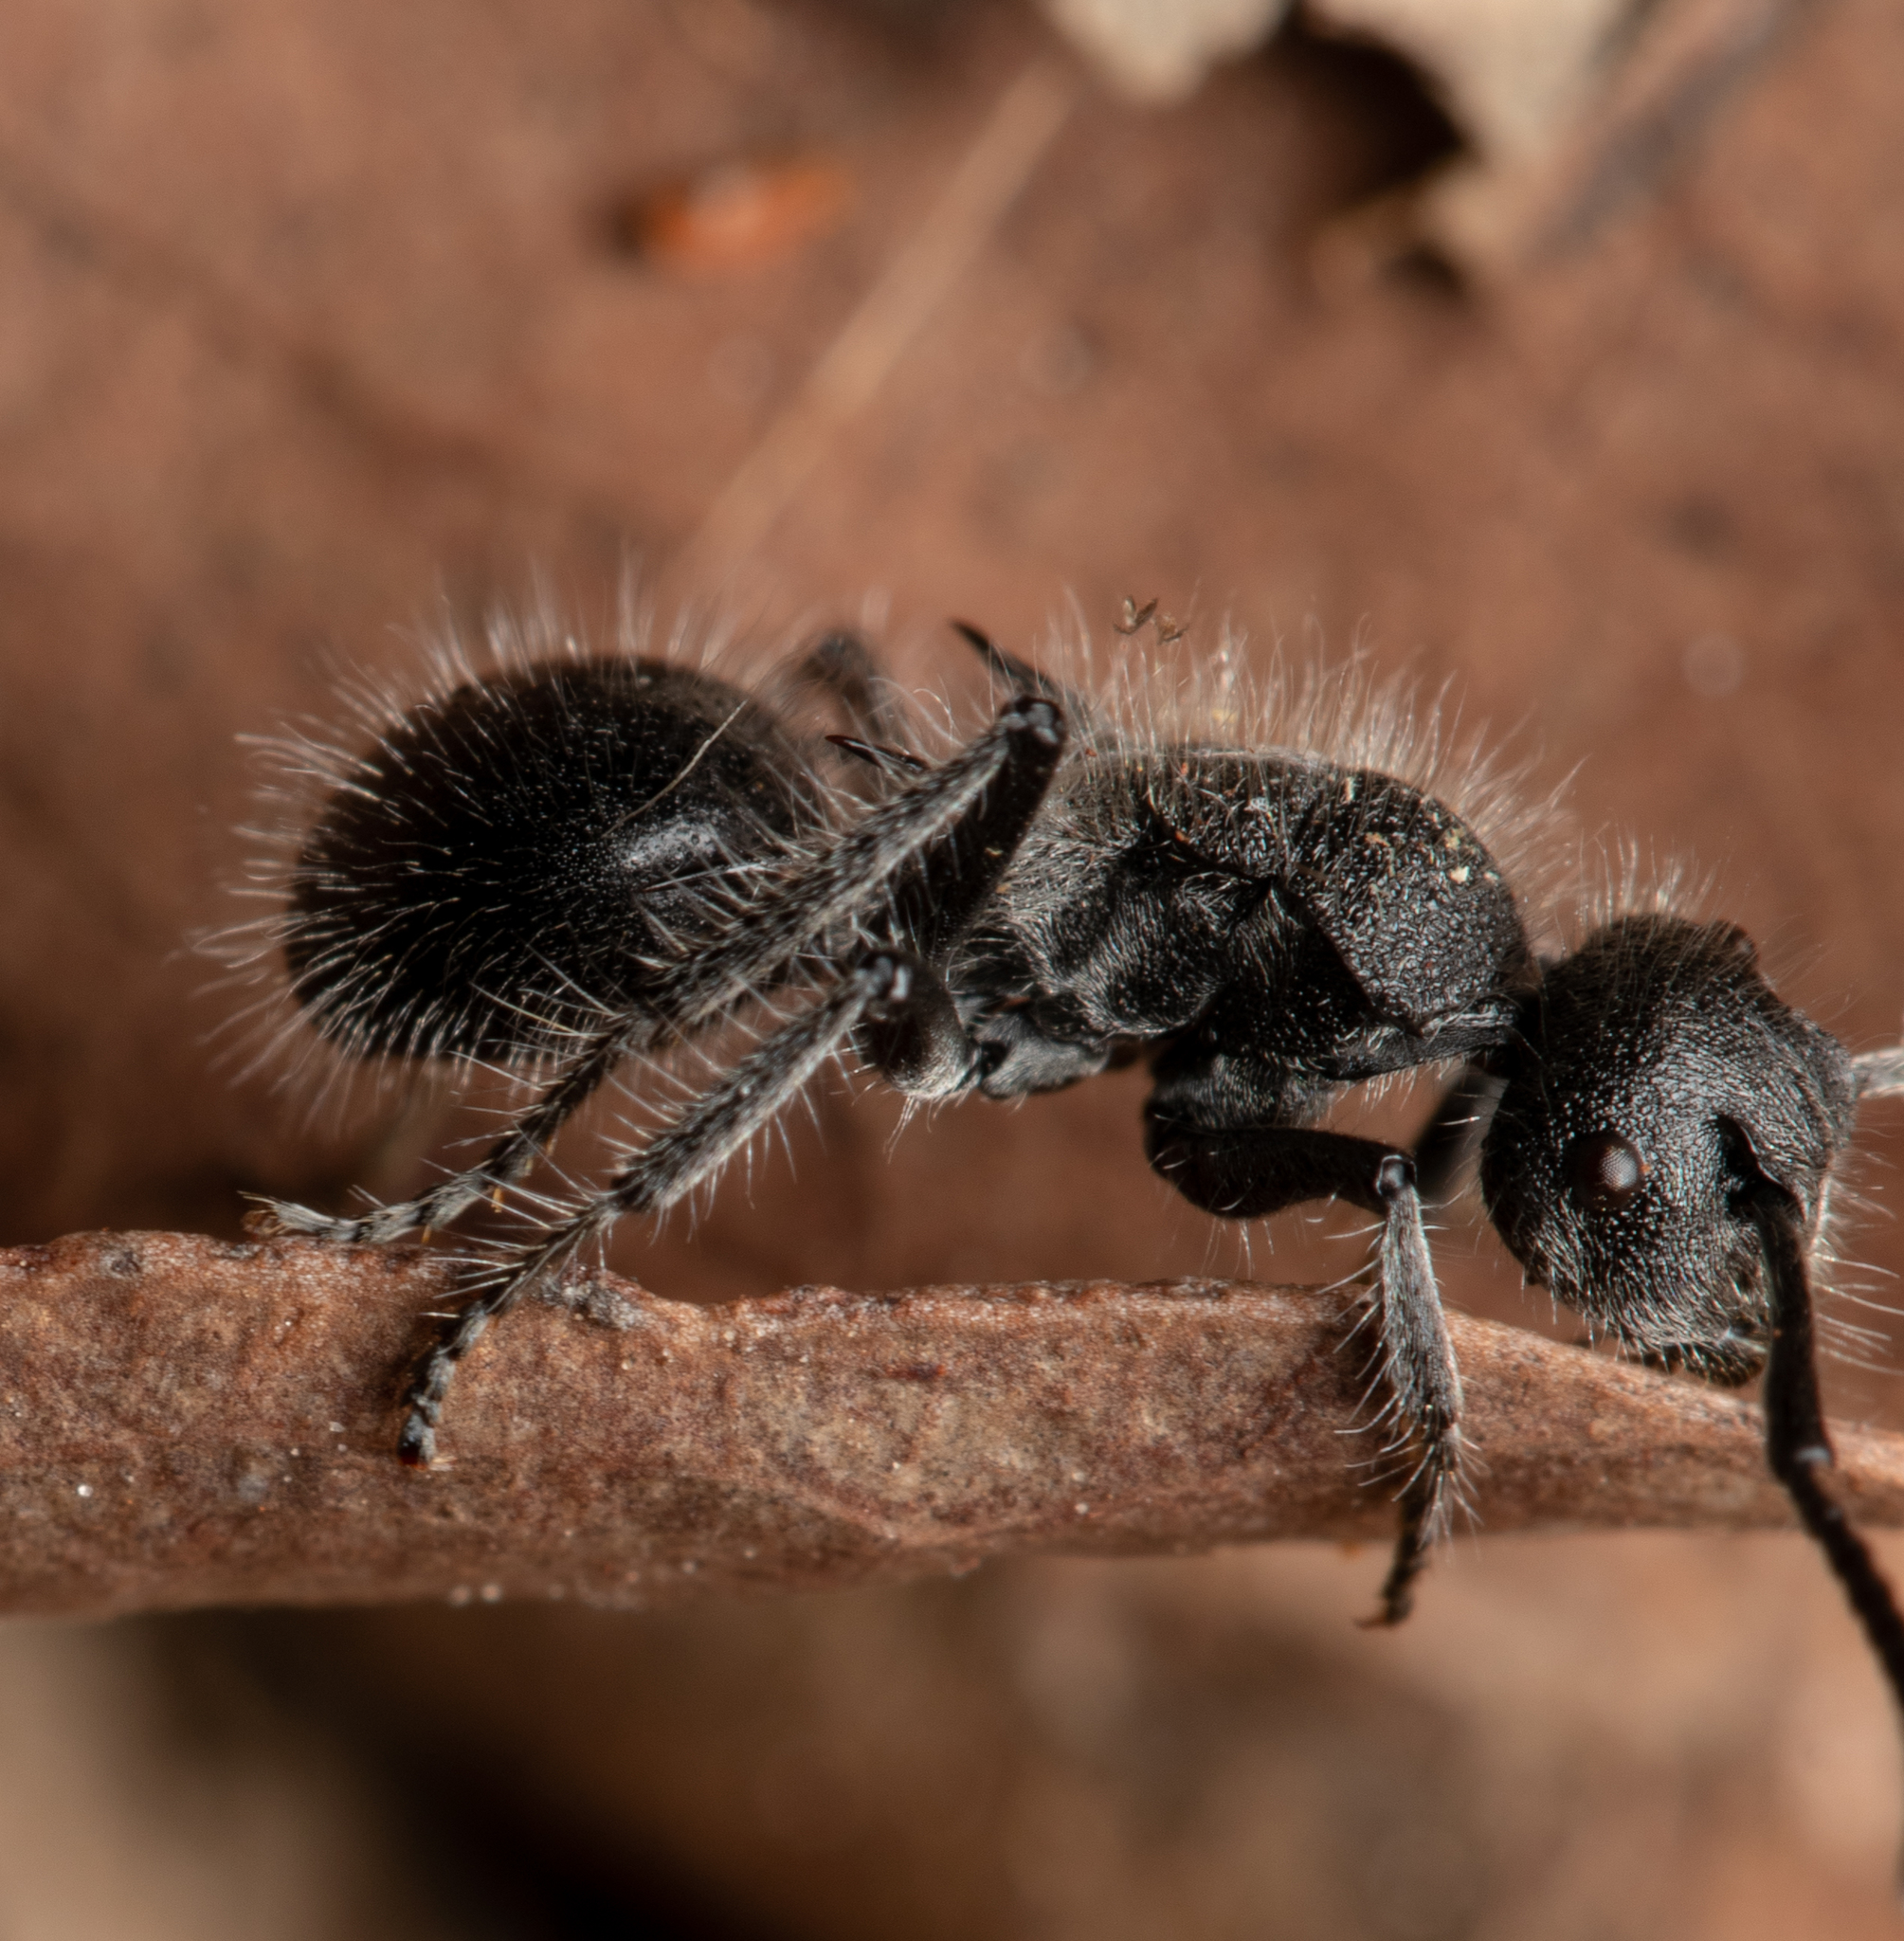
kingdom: Animalia
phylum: Arthropoda
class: Insecta
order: Hymenoptera
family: Formicidae
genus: Polyrhachis
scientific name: Polyrhachis punctiventris
